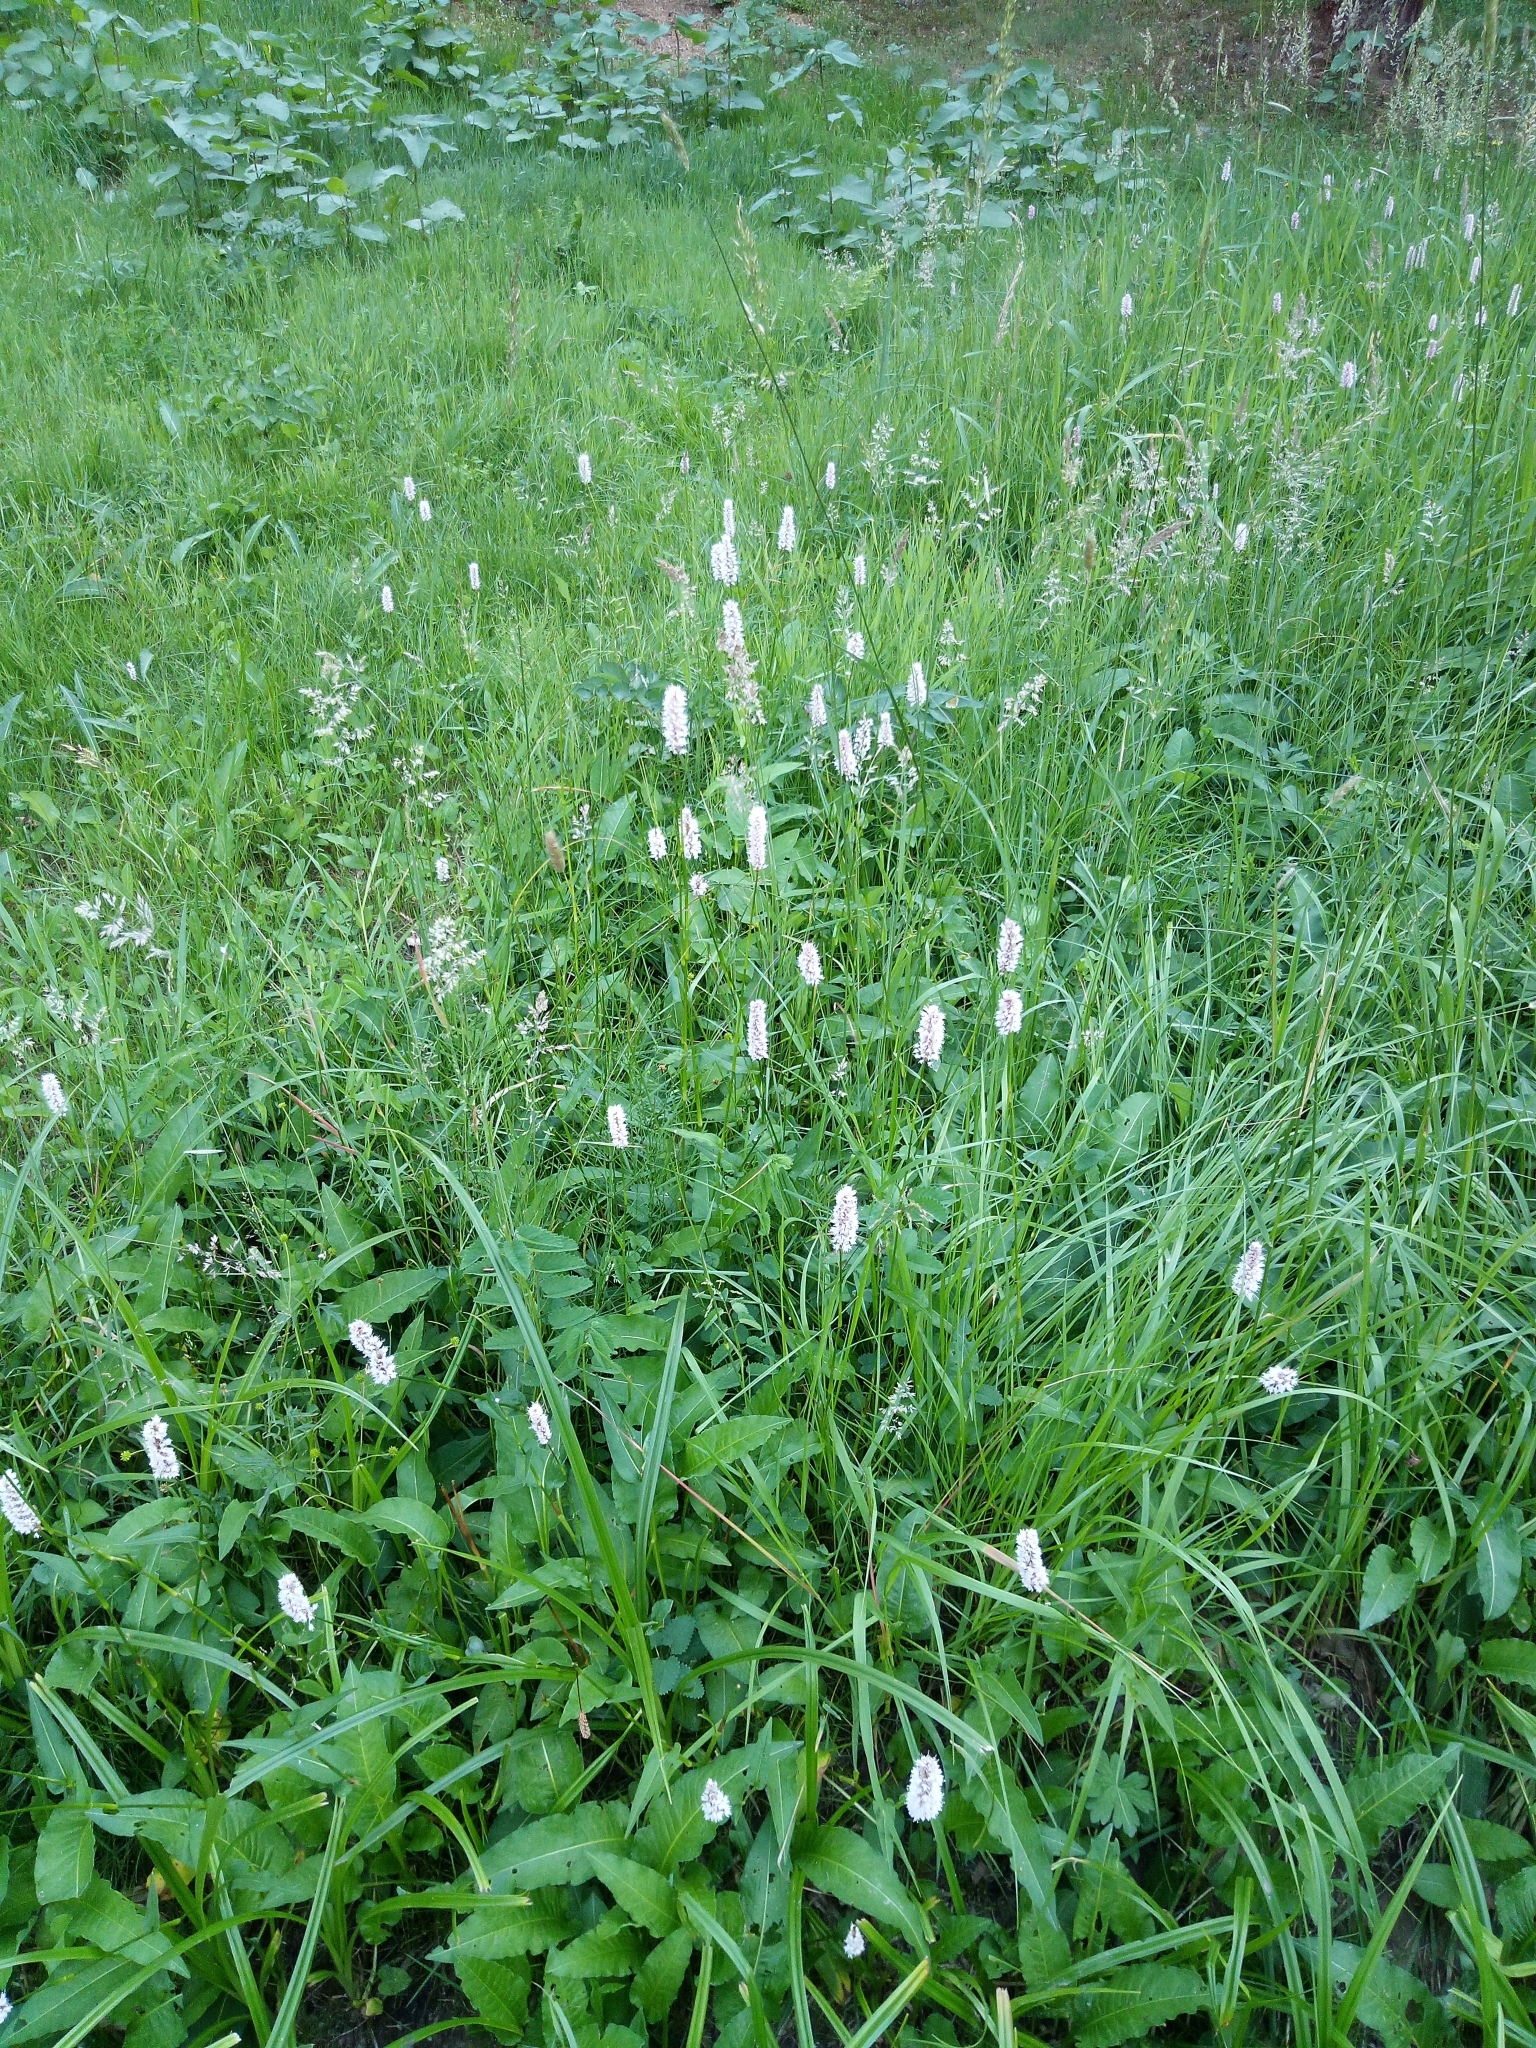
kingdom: Plantae
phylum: Tracheophyta
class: Magnoliopsida
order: Caryophyllales
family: Polygonaceae
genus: Bistorta
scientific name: Bistorta officinalis
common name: Common bistort
